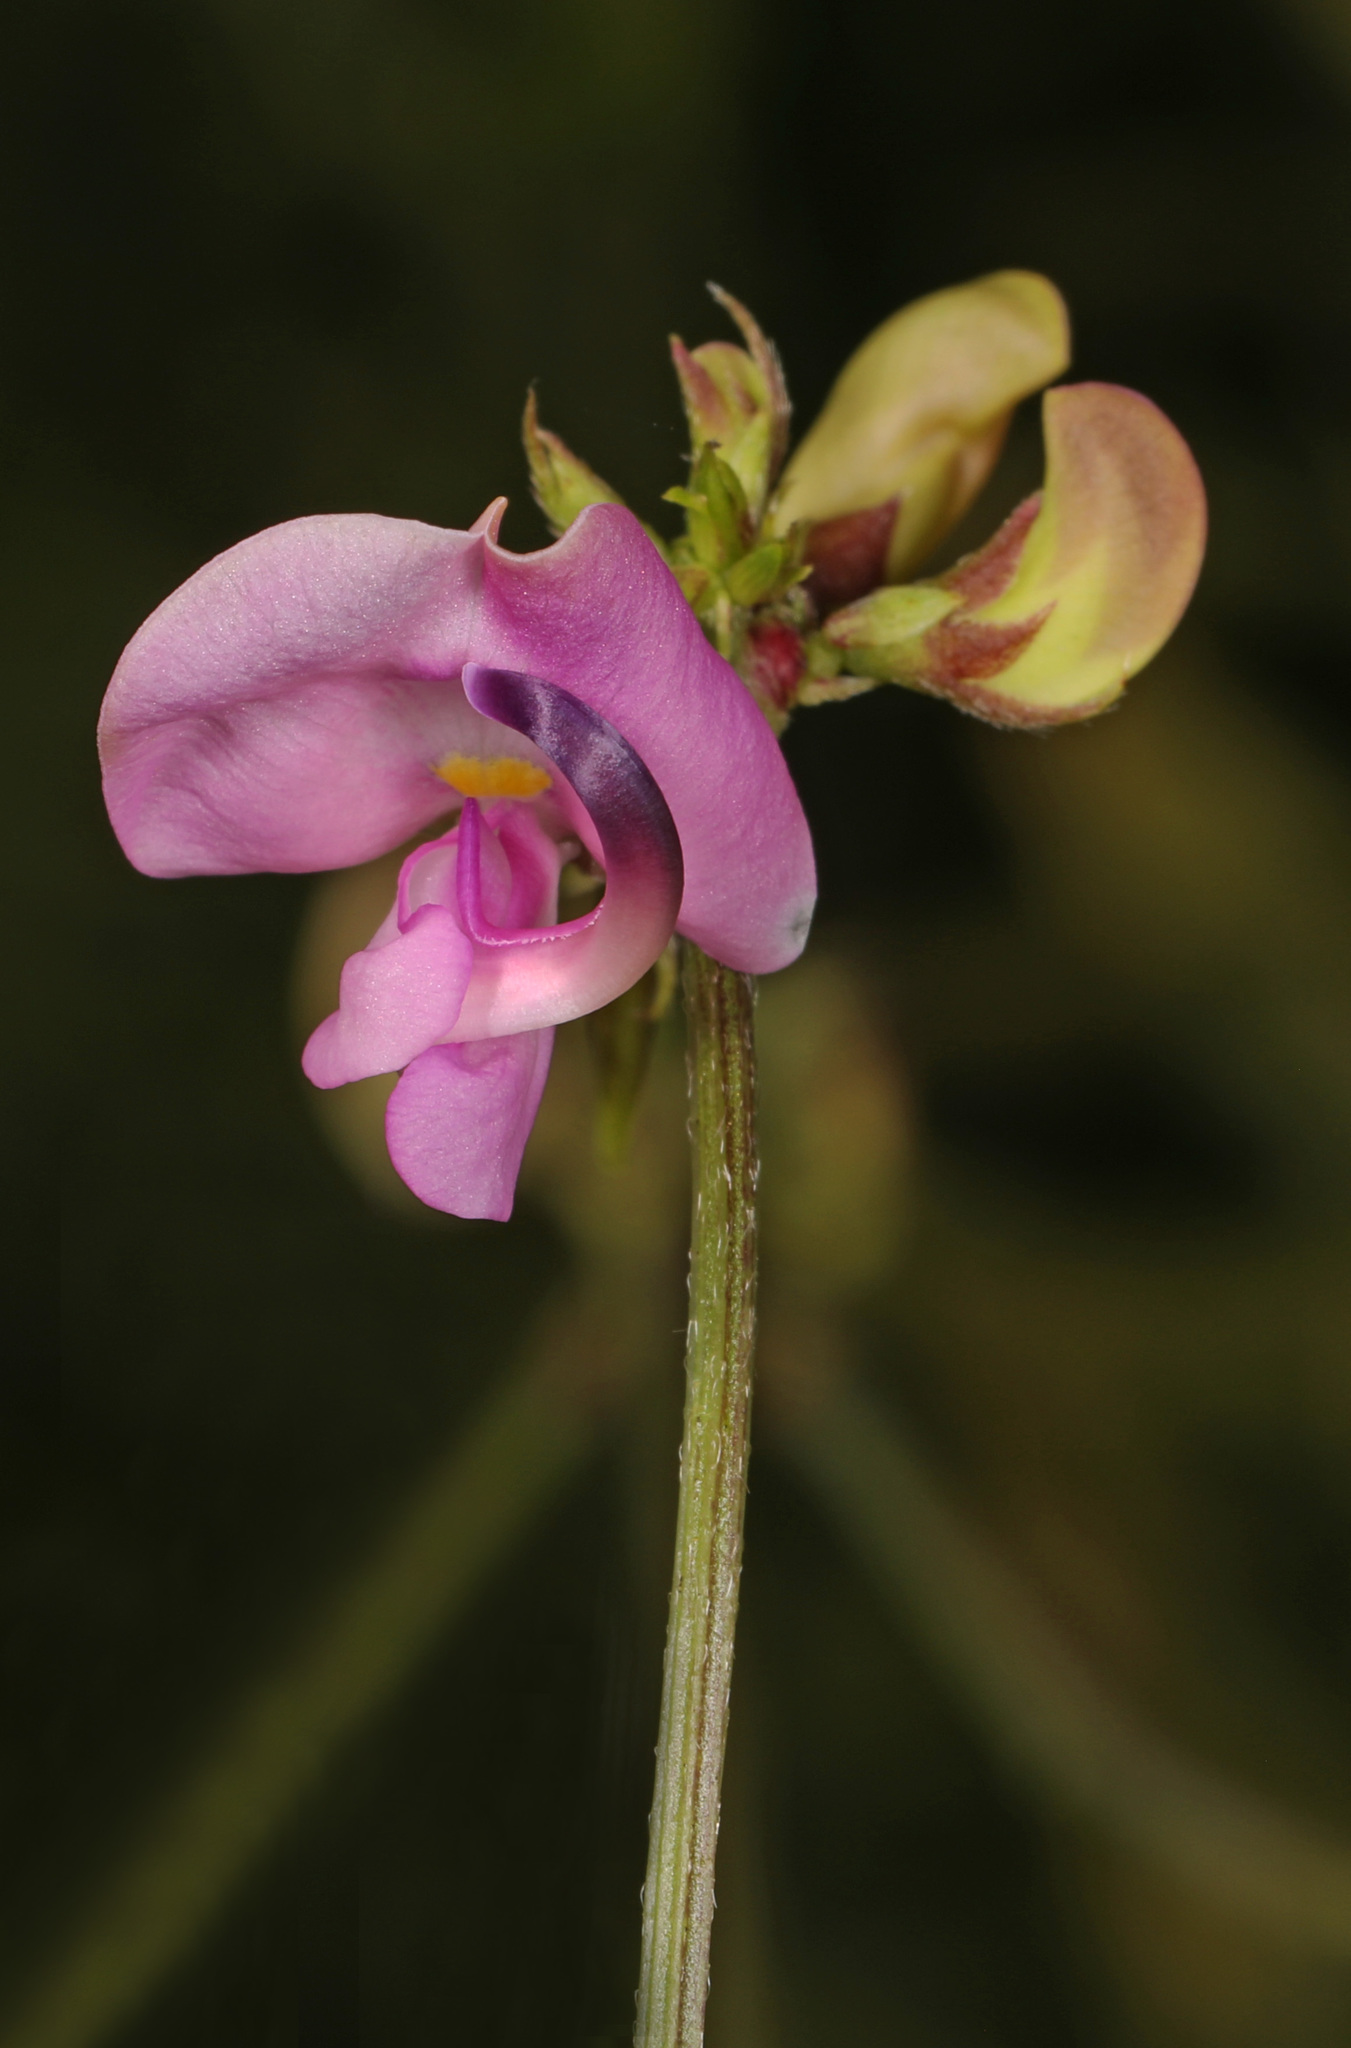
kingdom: Plantae
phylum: Tracheophyta
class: Magnoliopsida
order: Fabales
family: Fabaceae
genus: Strophostyles
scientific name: Strophostyles helvola
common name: Trailing wild bean
